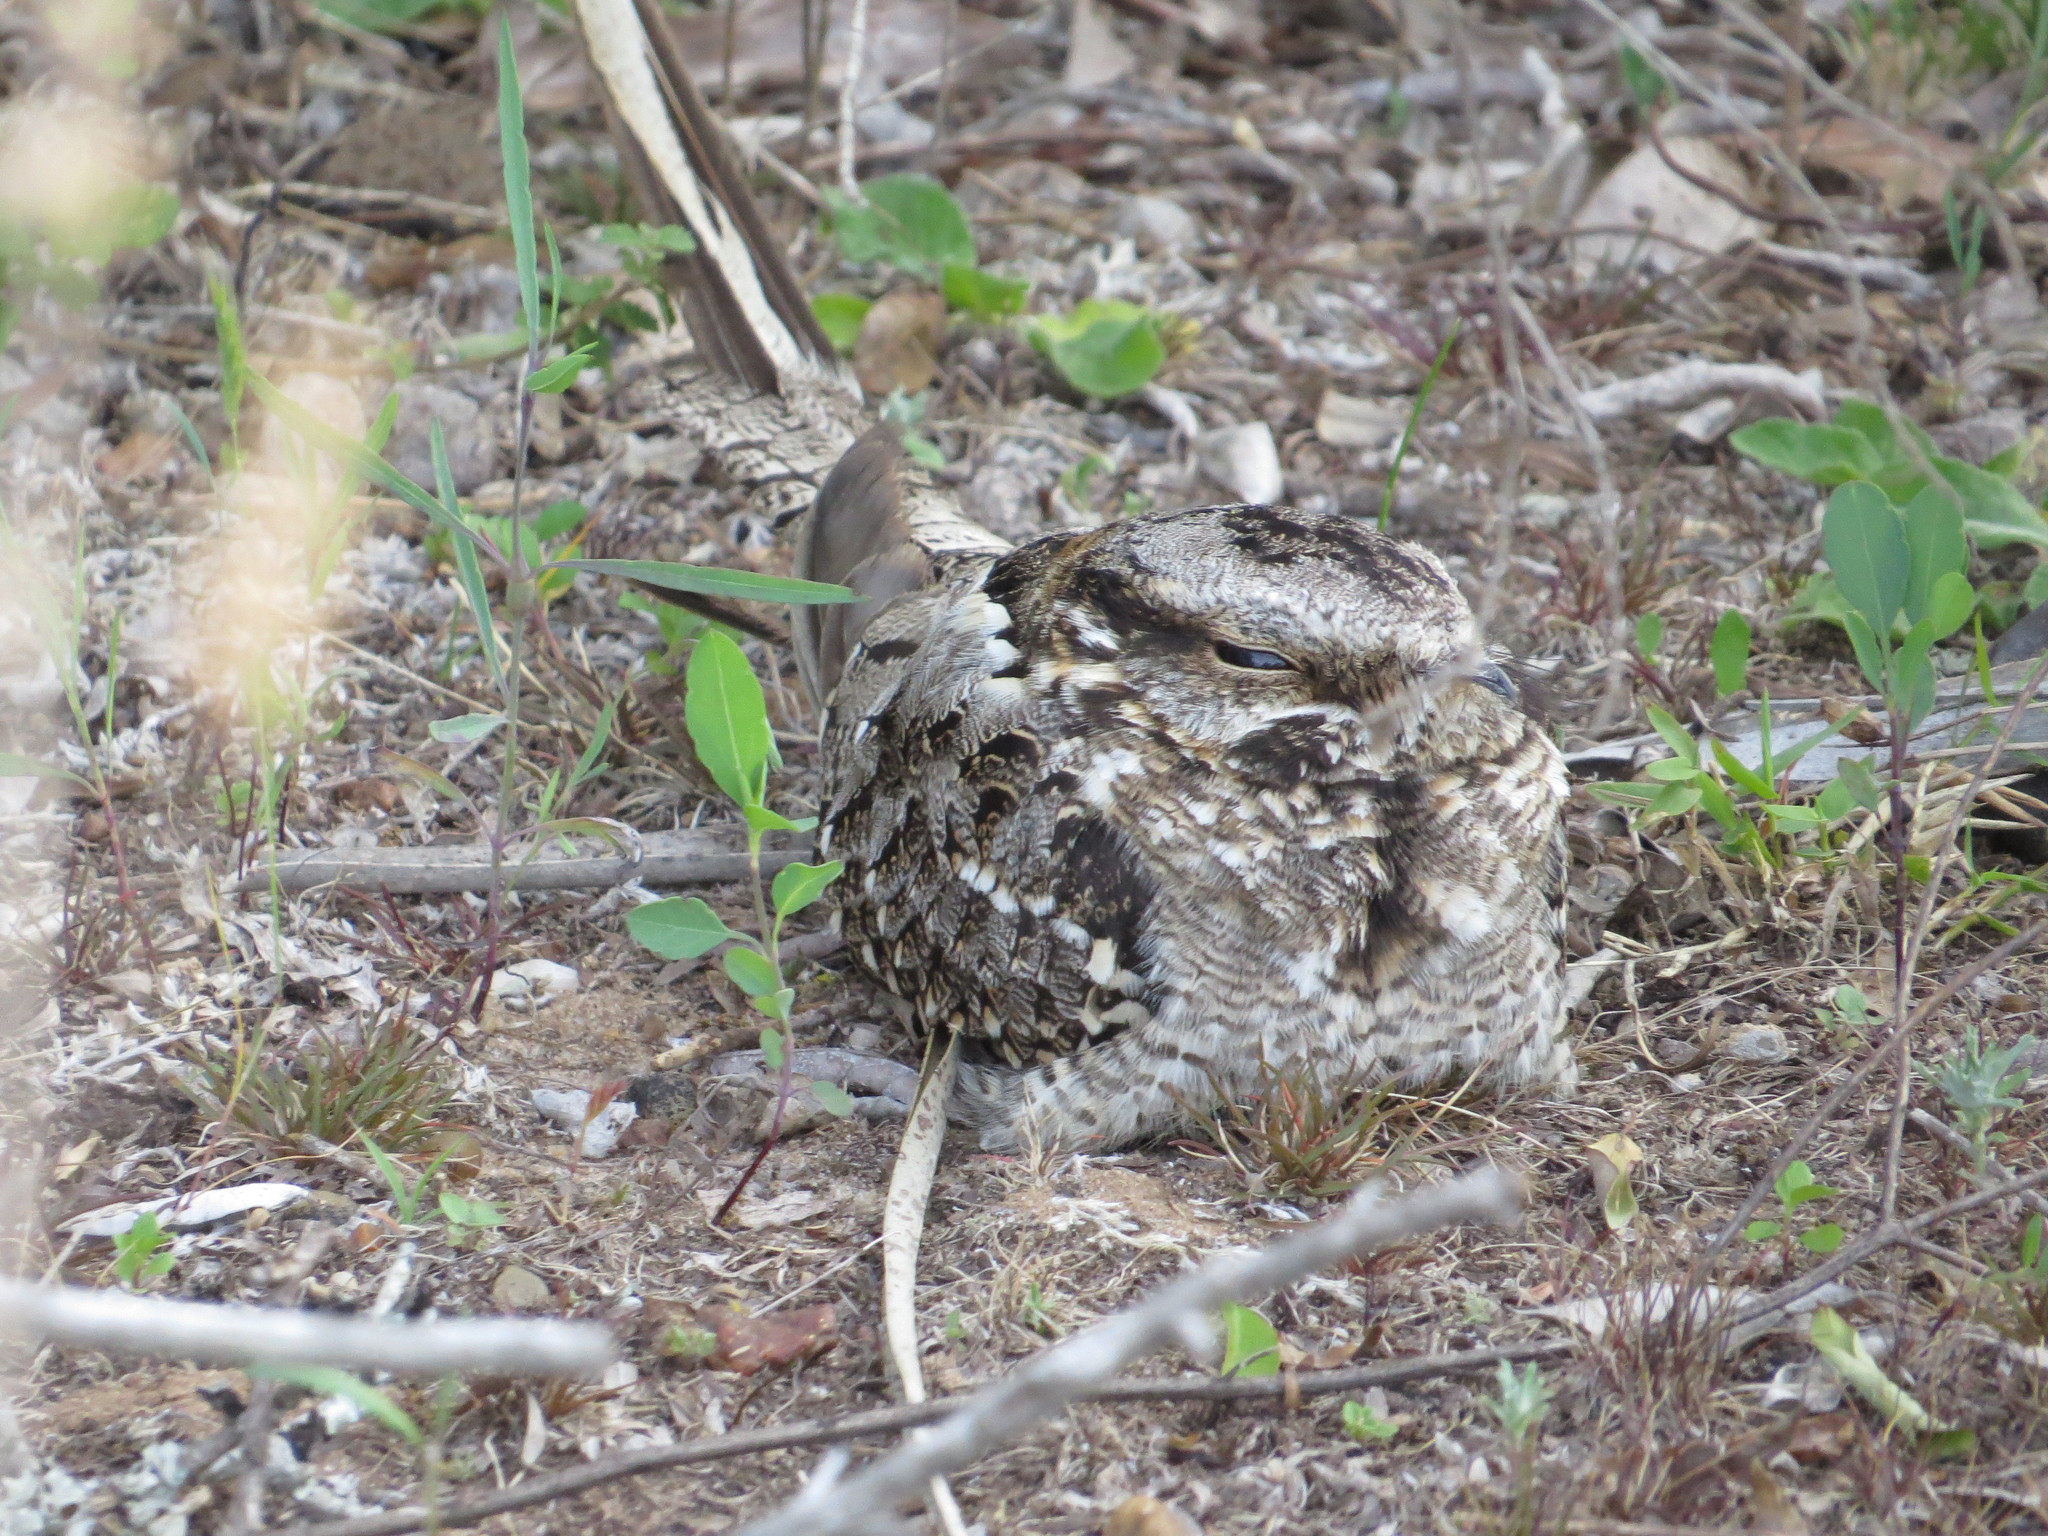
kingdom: Animalia
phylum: Chordata
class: Aves
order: Caprimulgiformes
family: Caprimulgidae
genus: Hydropsalis
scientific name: Hydropsalis torquata
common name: Scissor-tailed nightjar
